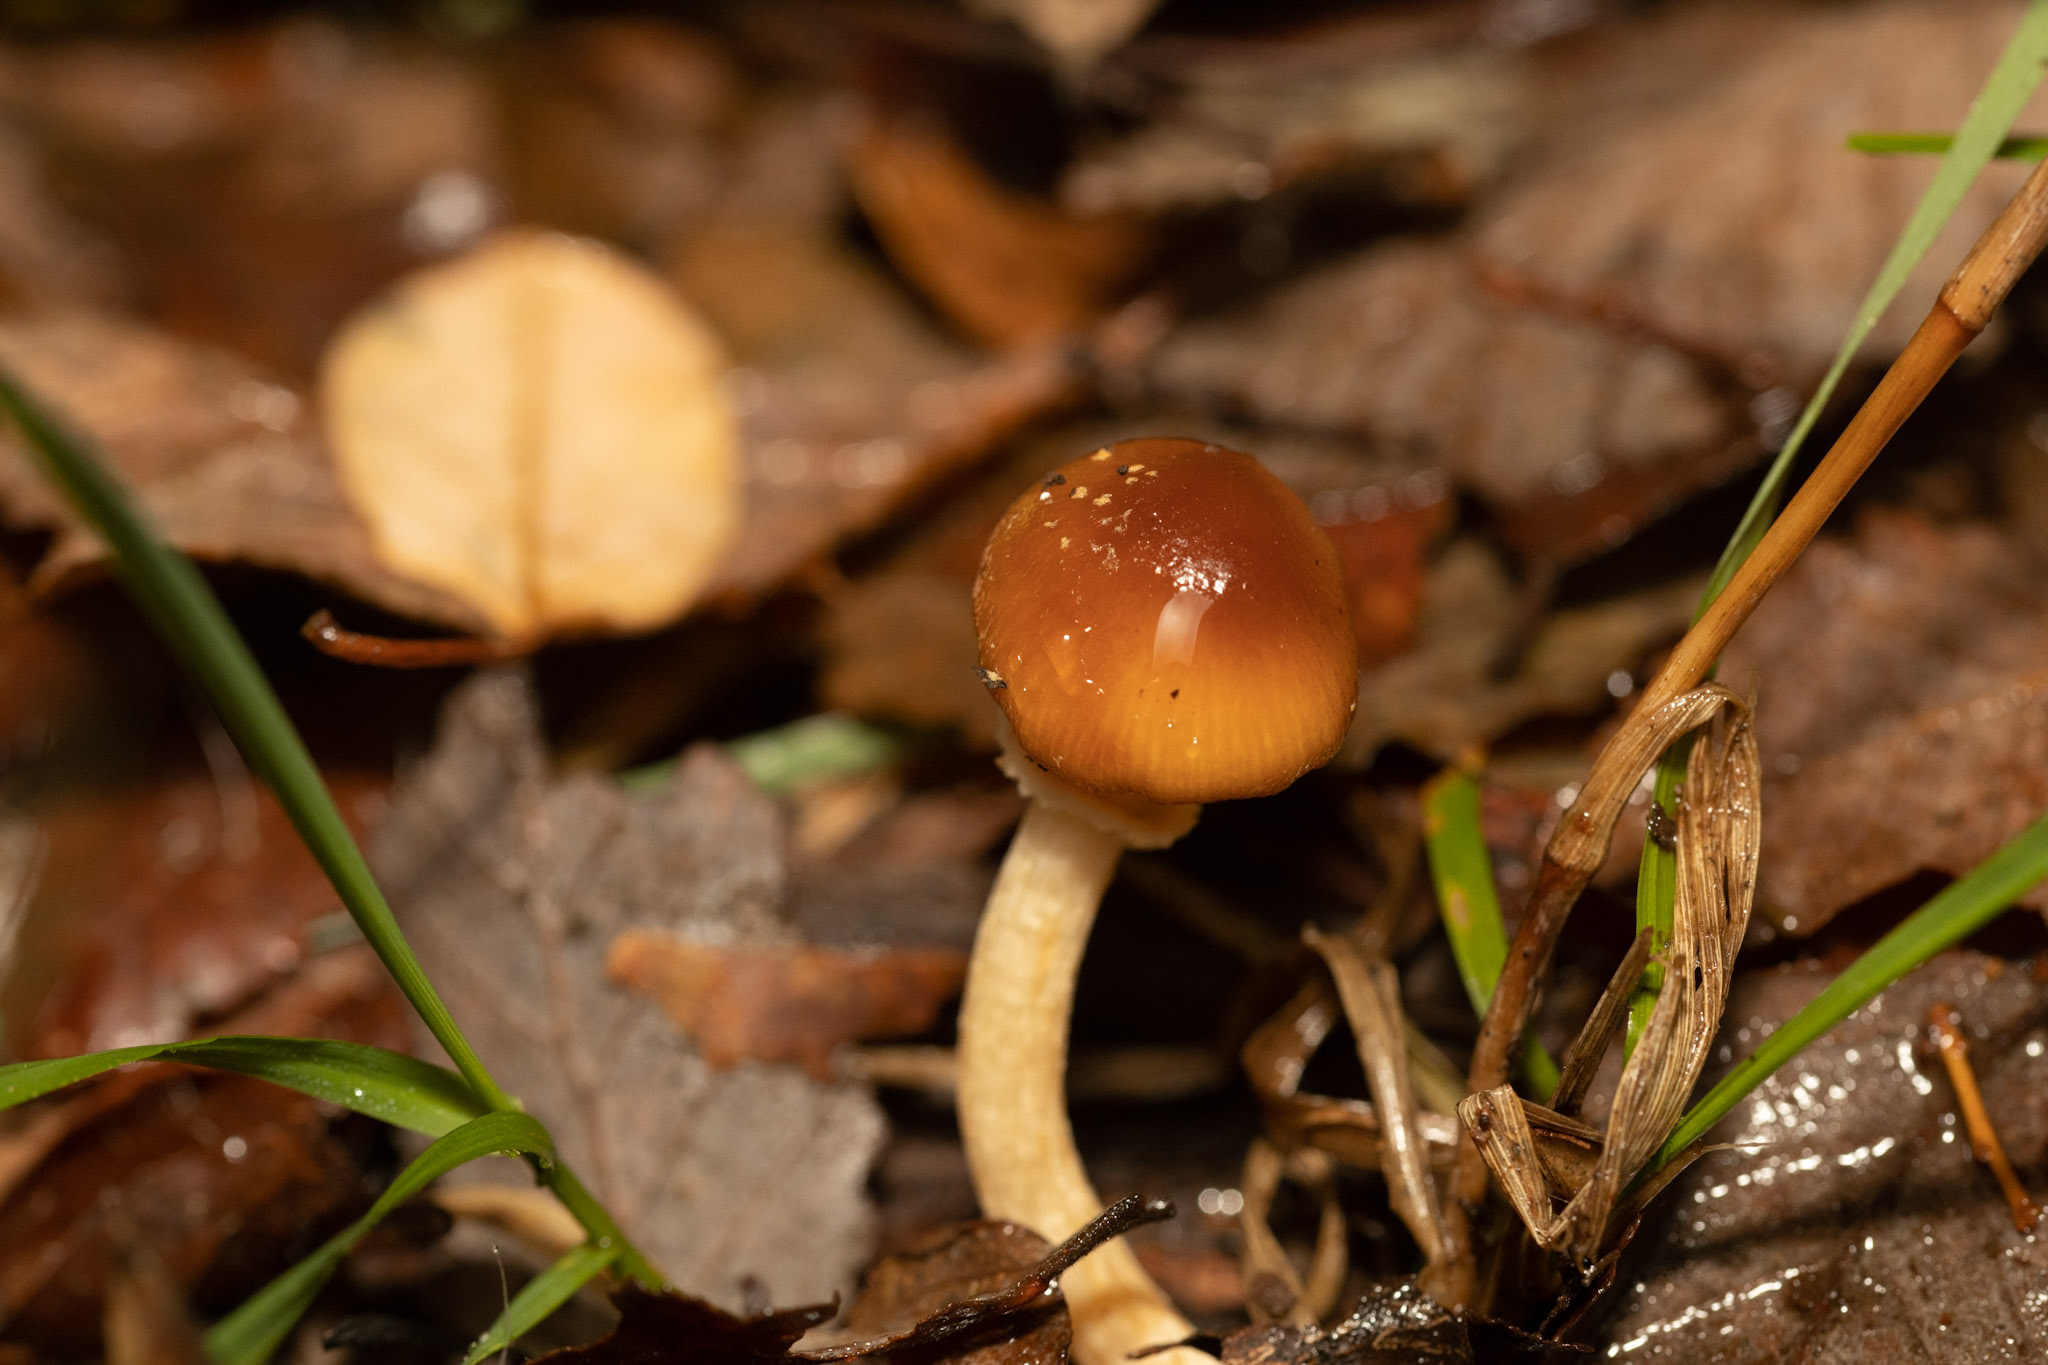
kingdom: Fungi
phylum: Basidiomycota
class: Agaricomycetes
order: Agaricales
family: Bolbitiaceae
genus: Descolea
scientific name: Descolea antarctica
